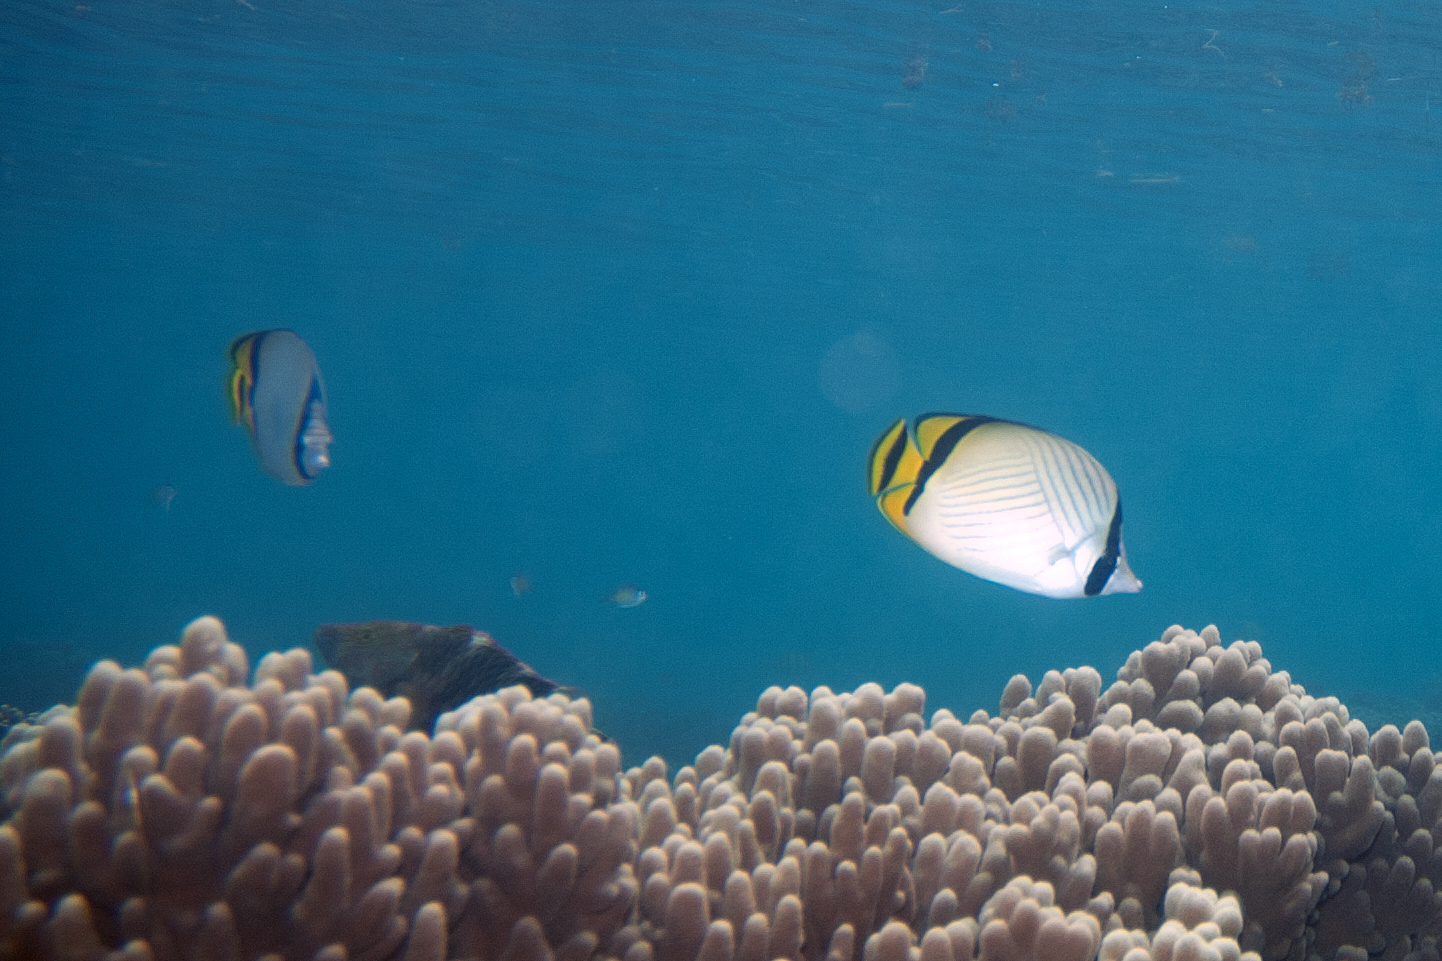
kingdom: Animalia
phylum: Chordata
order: Perciformes
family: Chaetodontidae
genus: Chaetodon
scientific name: Chaetodon vagabundus
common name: Vagabond butterflyfish
